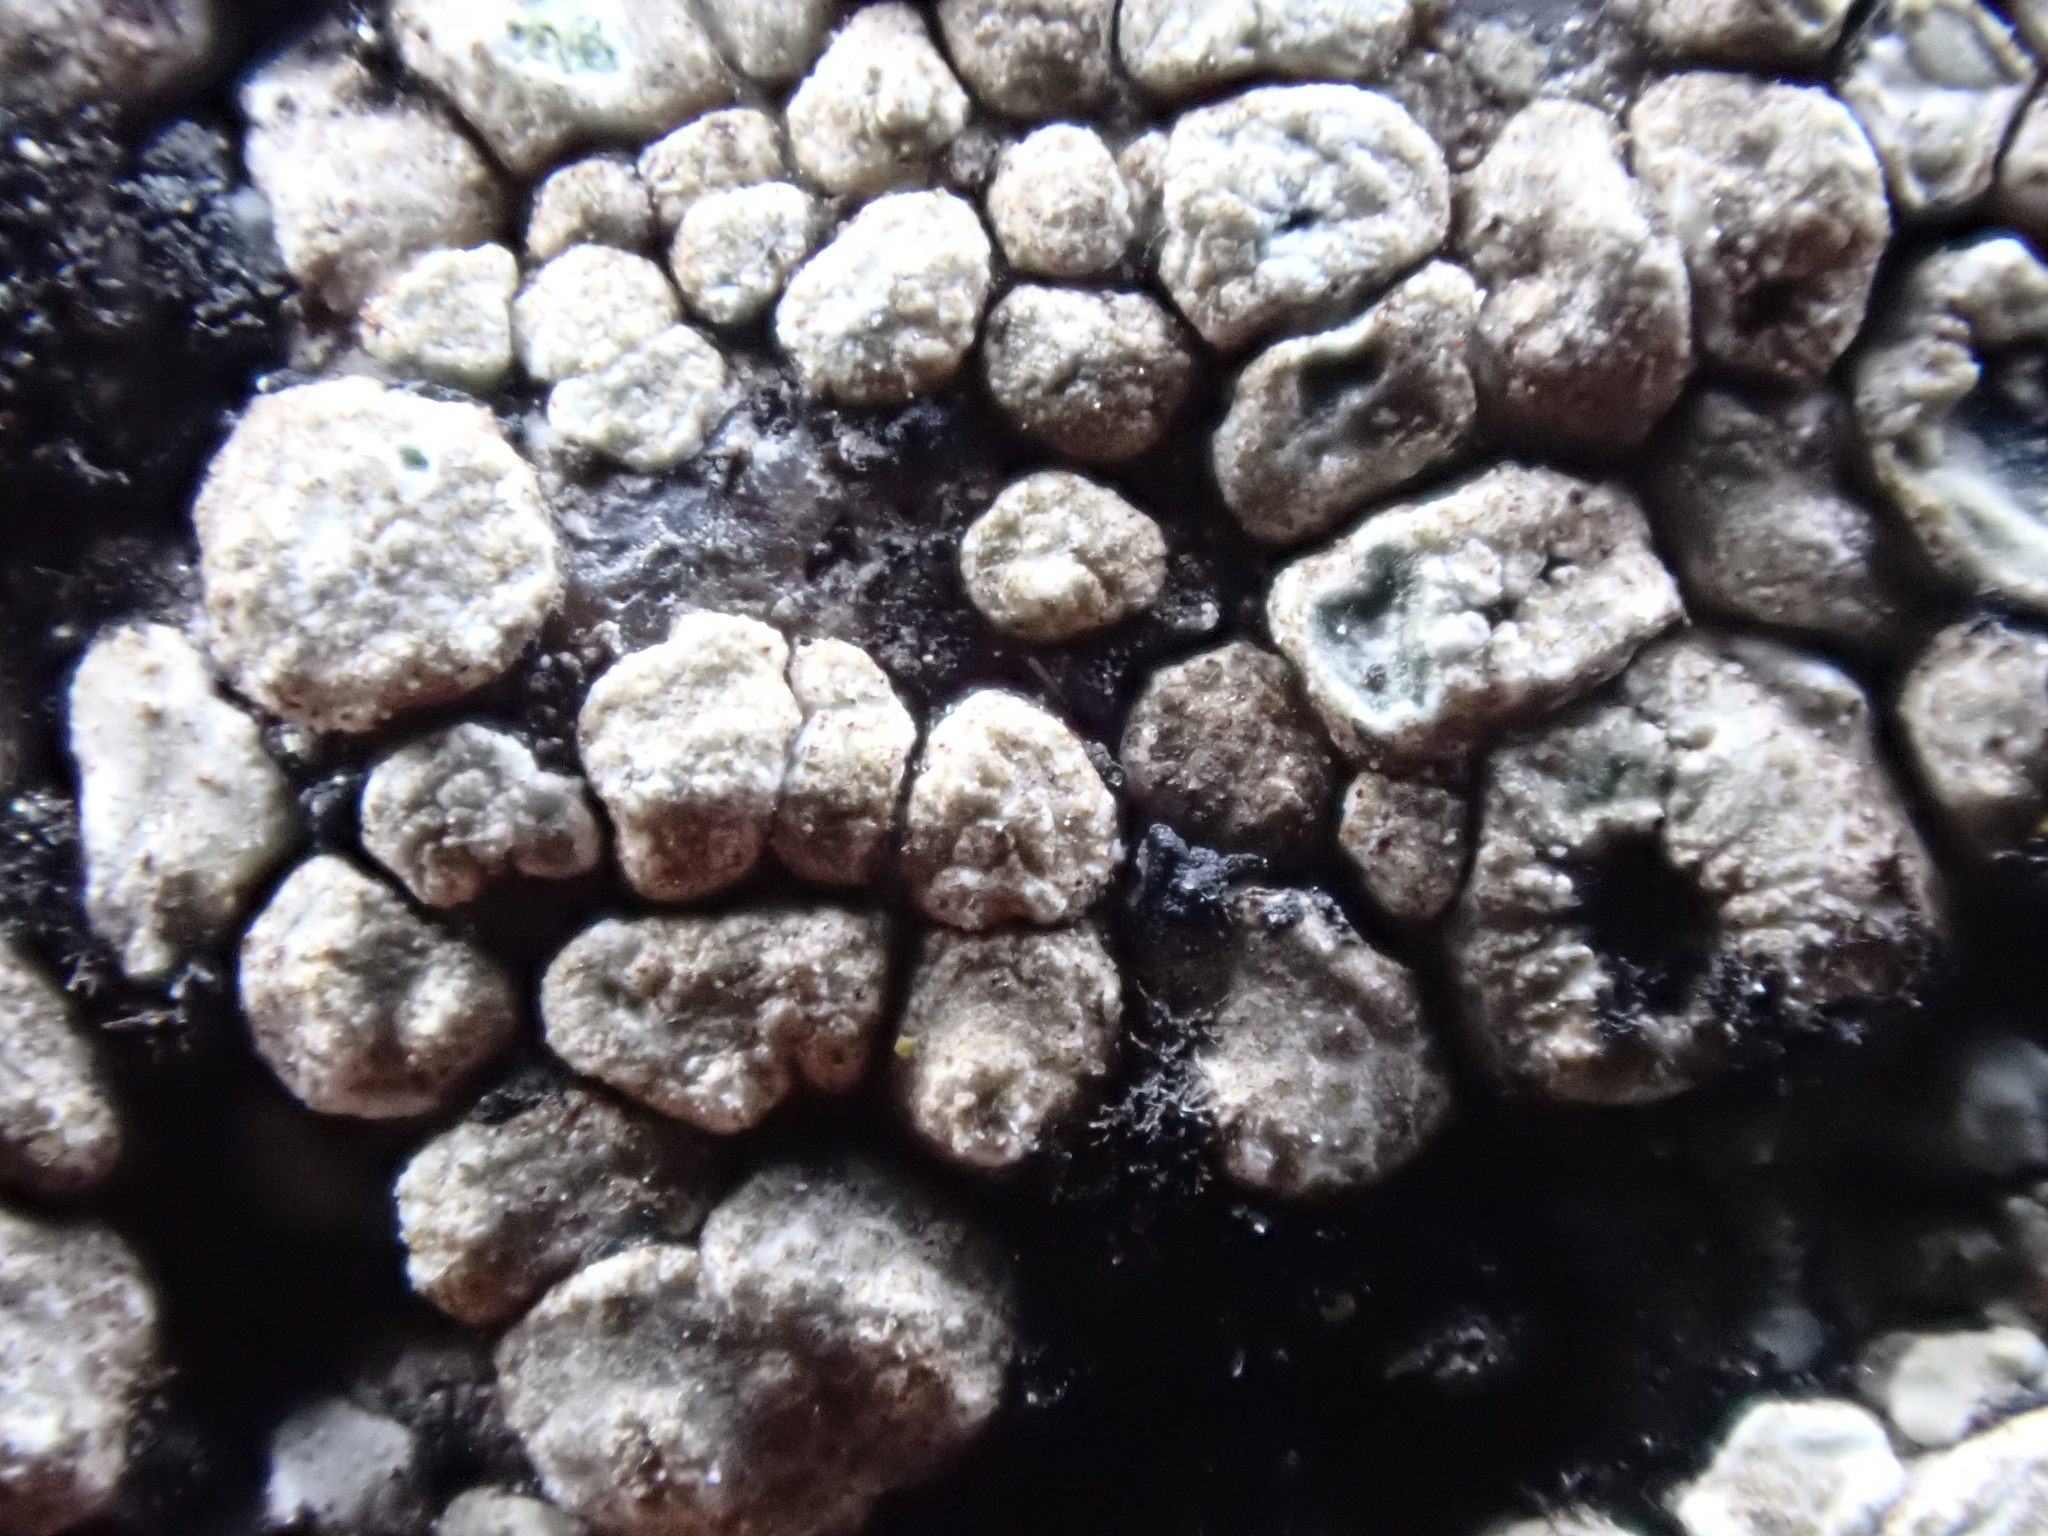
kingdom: Fungi
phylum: Ascomycota
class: Lecanoromycetes
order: Pertusariales
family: Megasporaceae
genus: Circinaria
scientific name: Circinaria contorta
